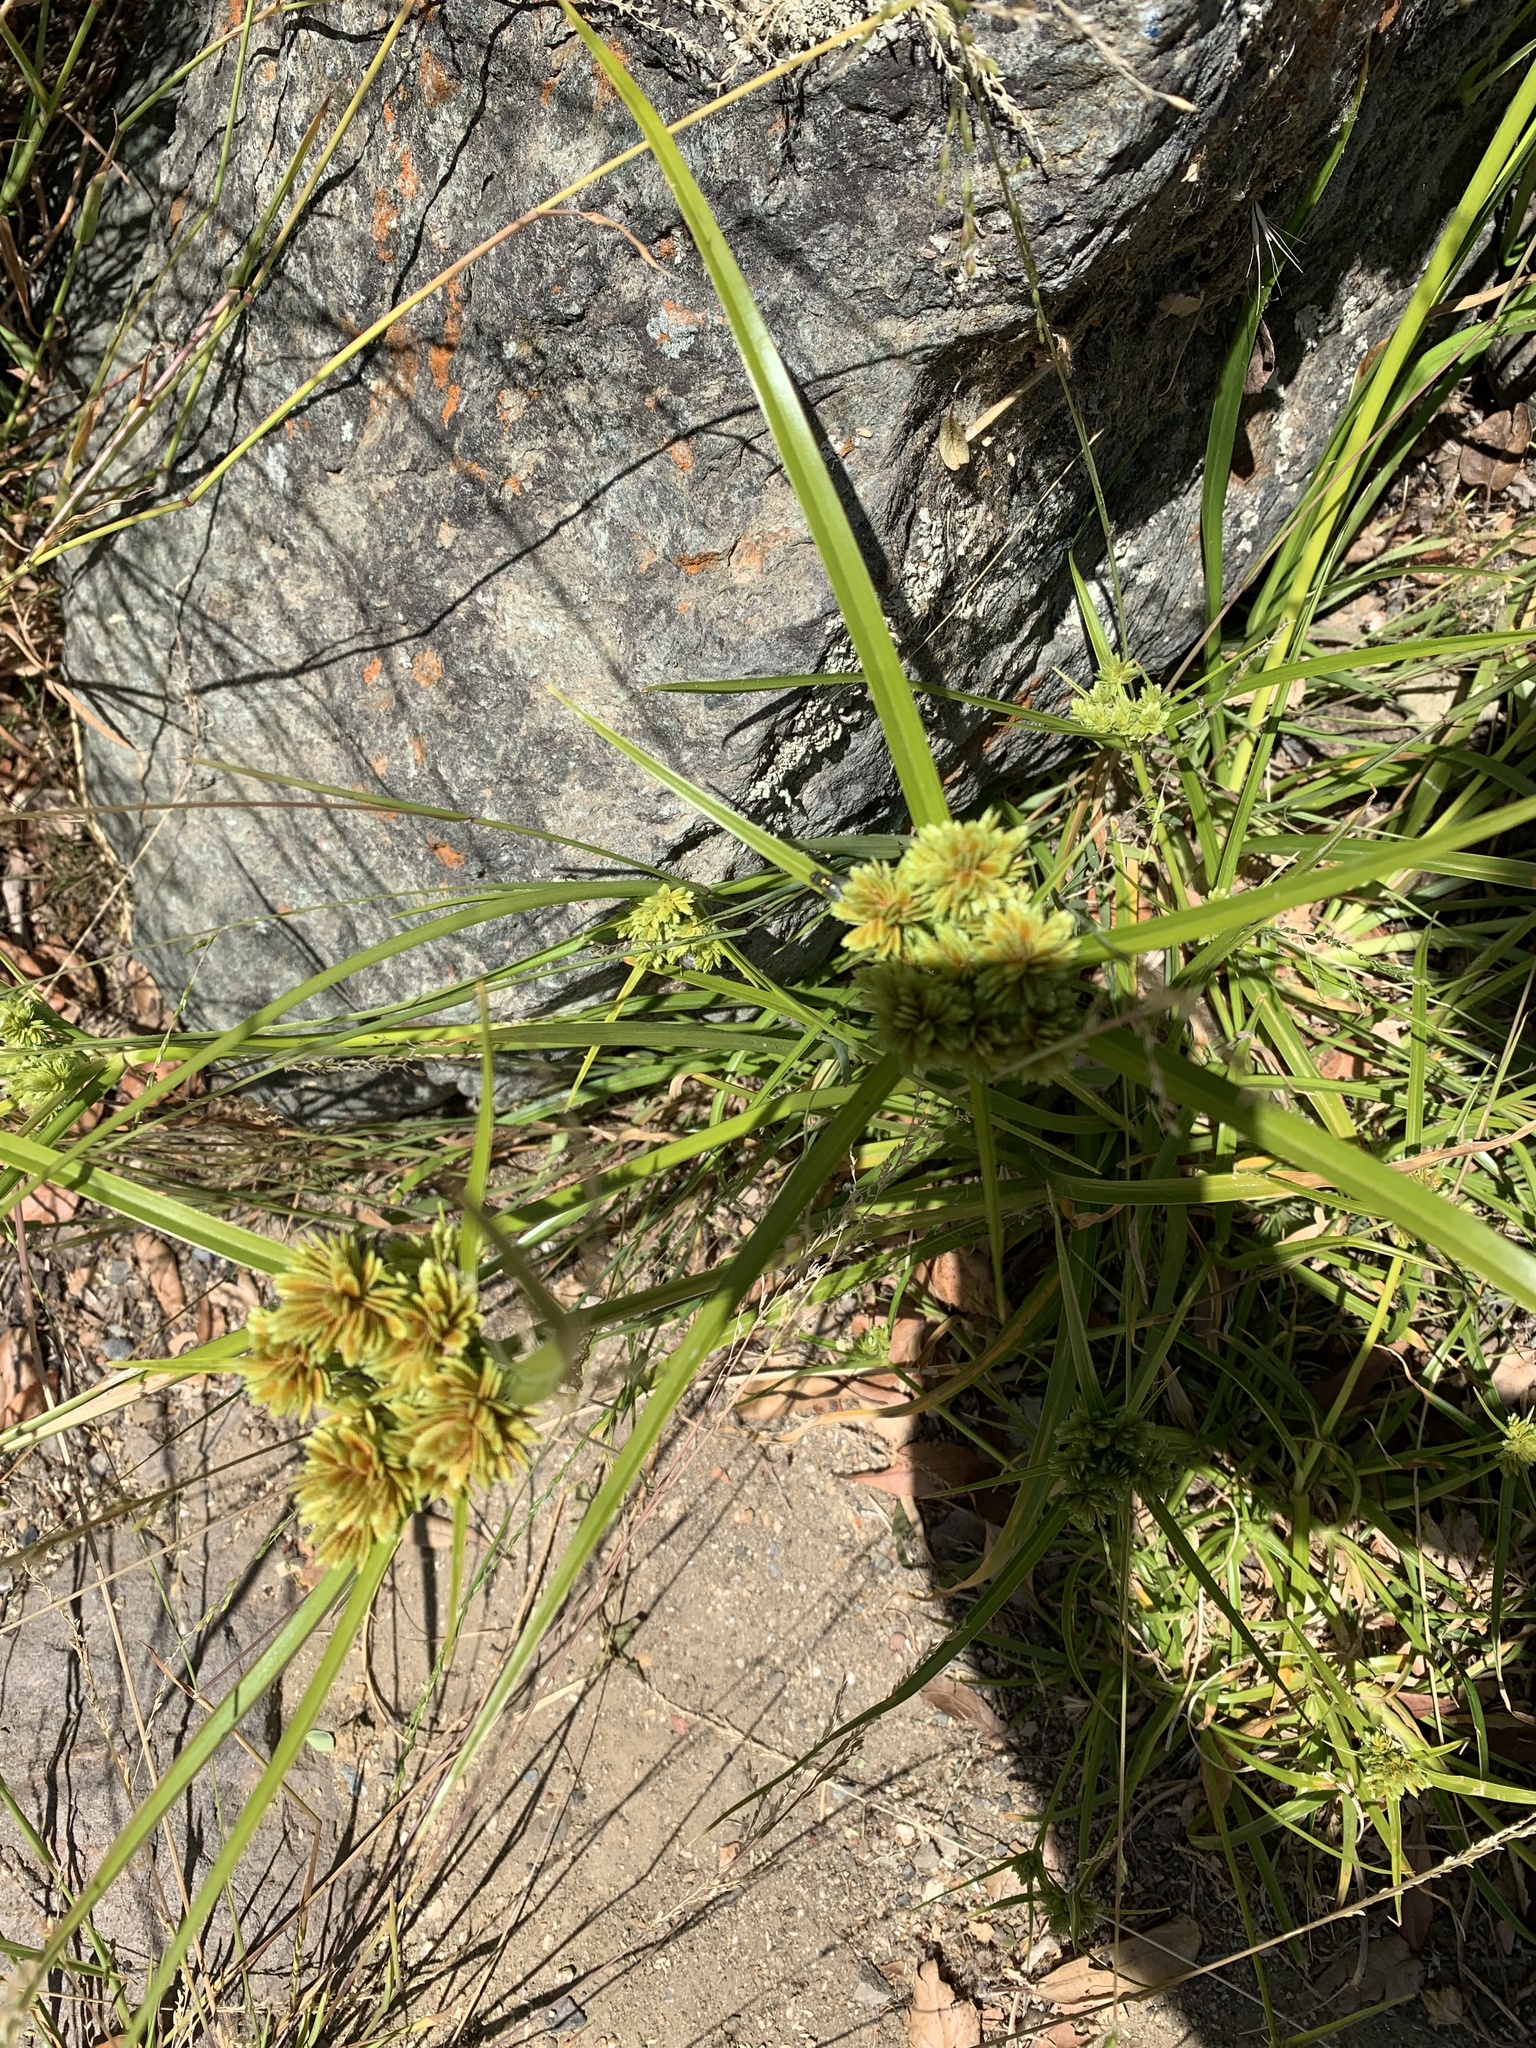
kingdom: Plantae
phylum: Tracheophyta
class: Liliopsida
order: Poales
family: Cyperaceae
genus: Cyperus
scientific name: Cyperus eragrostis
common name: Tall flatsedge
